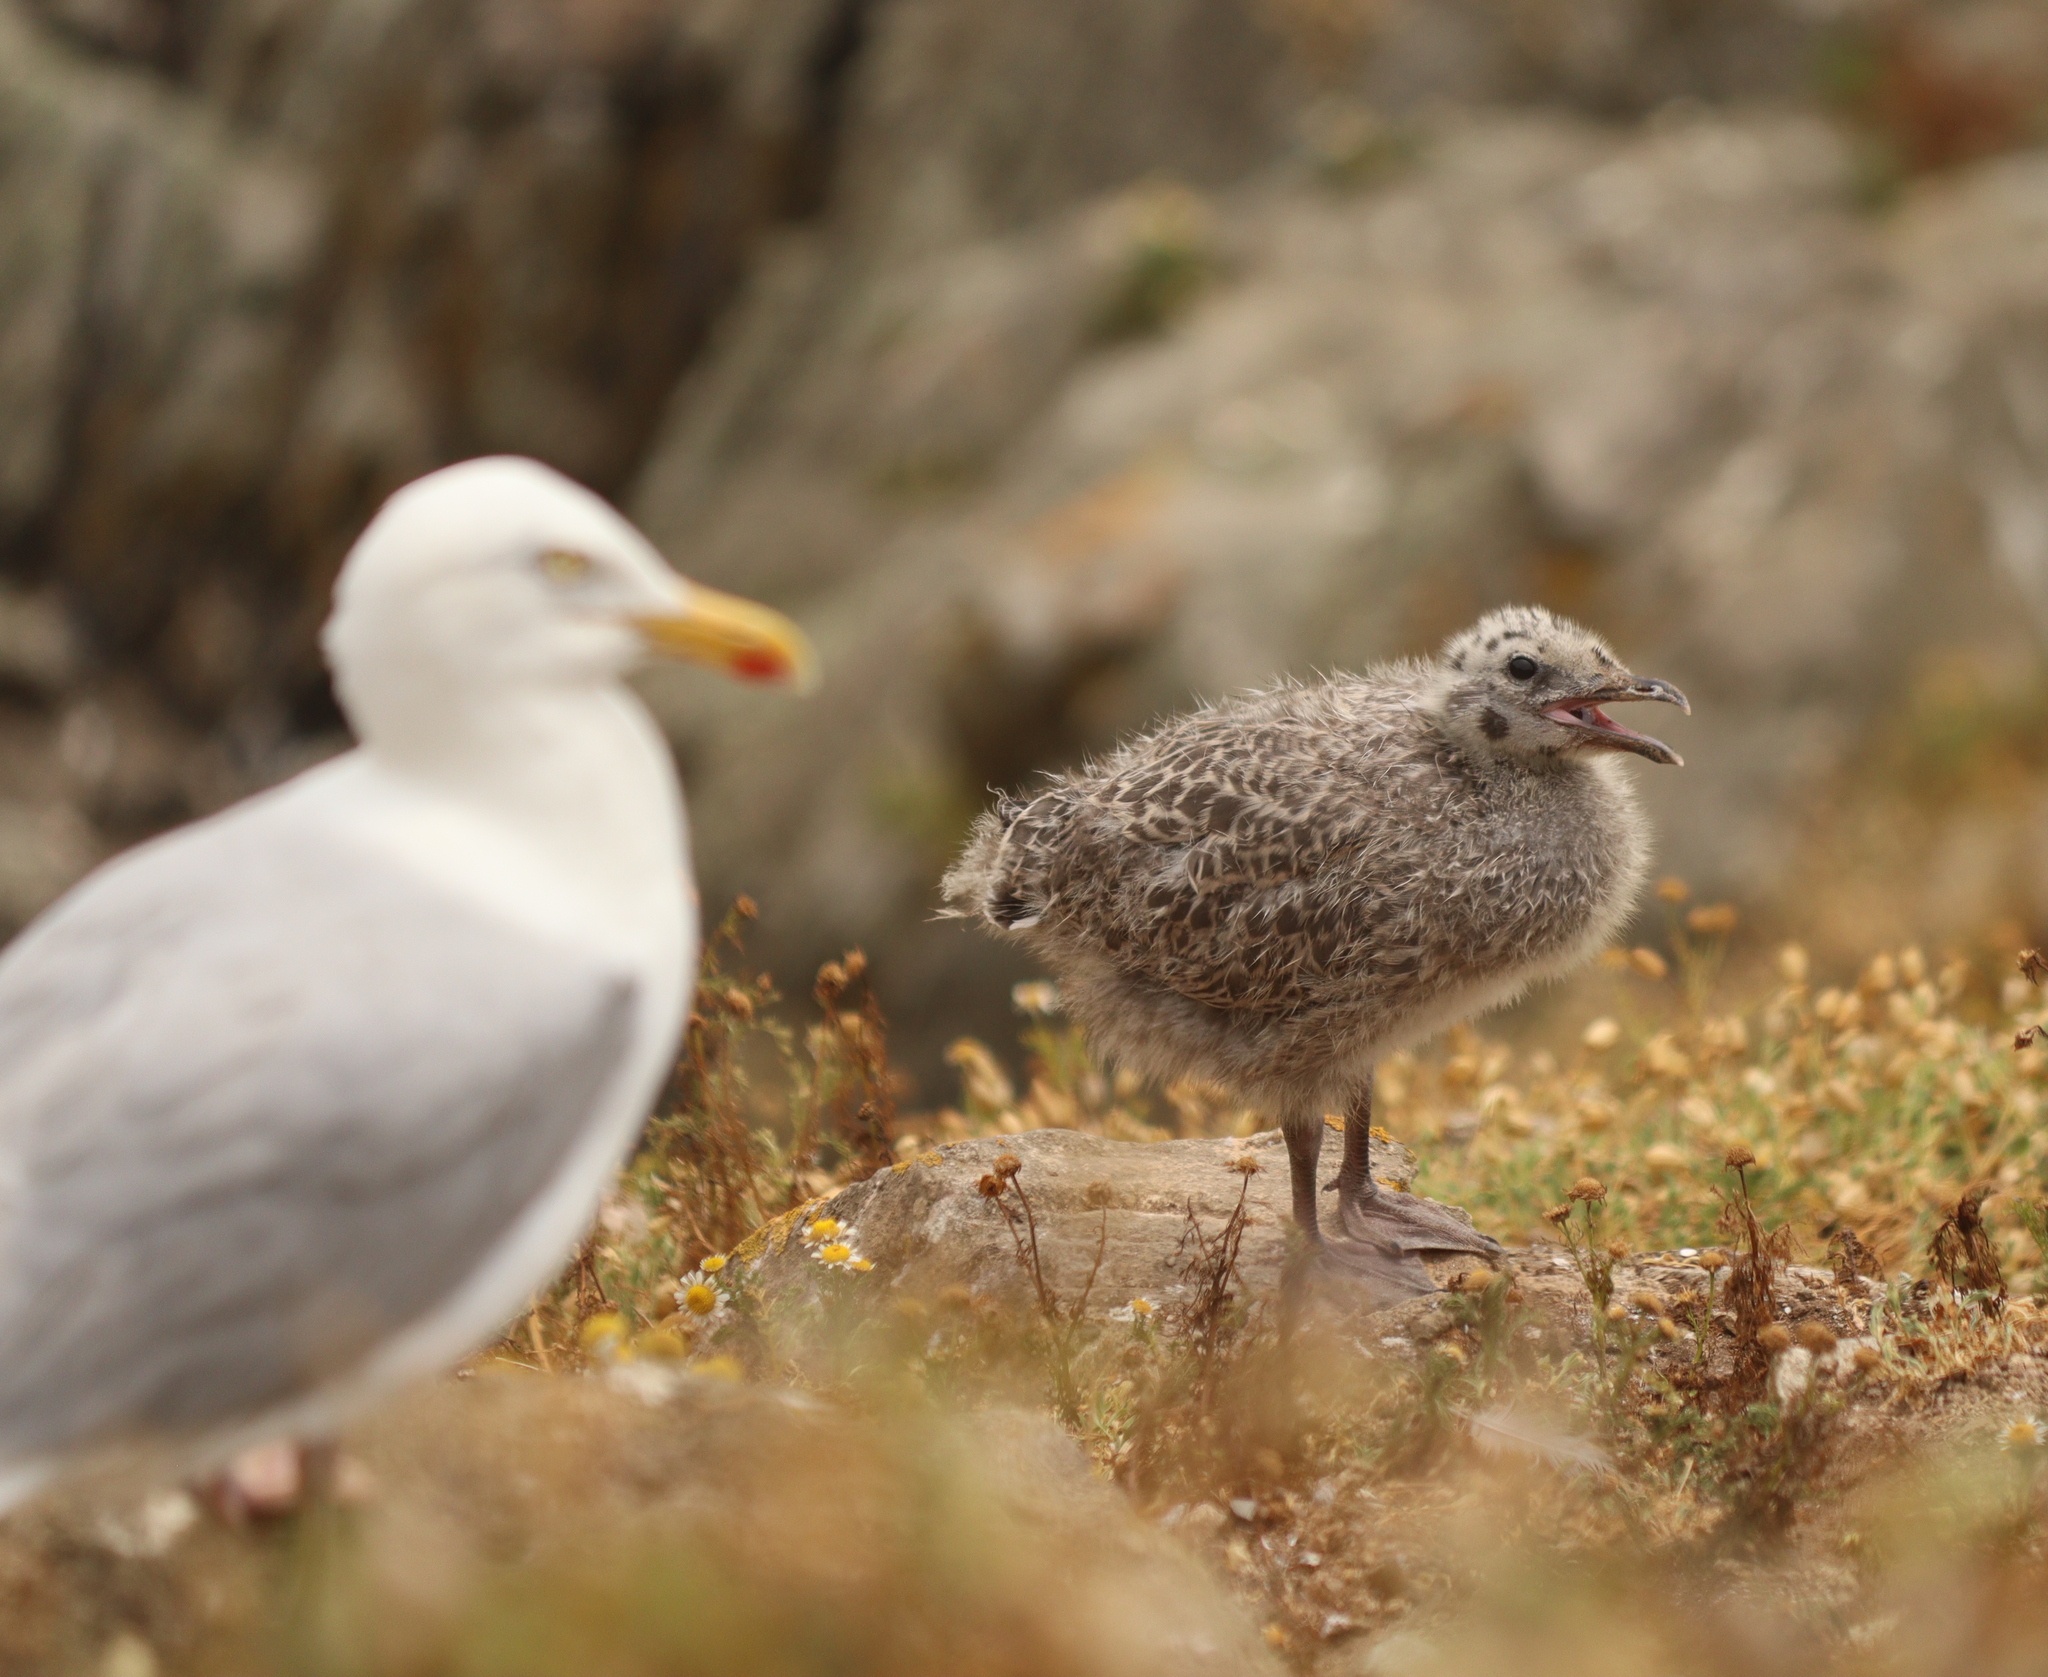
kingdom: Animalia
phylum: Chordata
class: Aves
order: Charadriiformes
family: Laridae
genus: Larus
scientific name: Larus argentatus
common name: Herring gull
